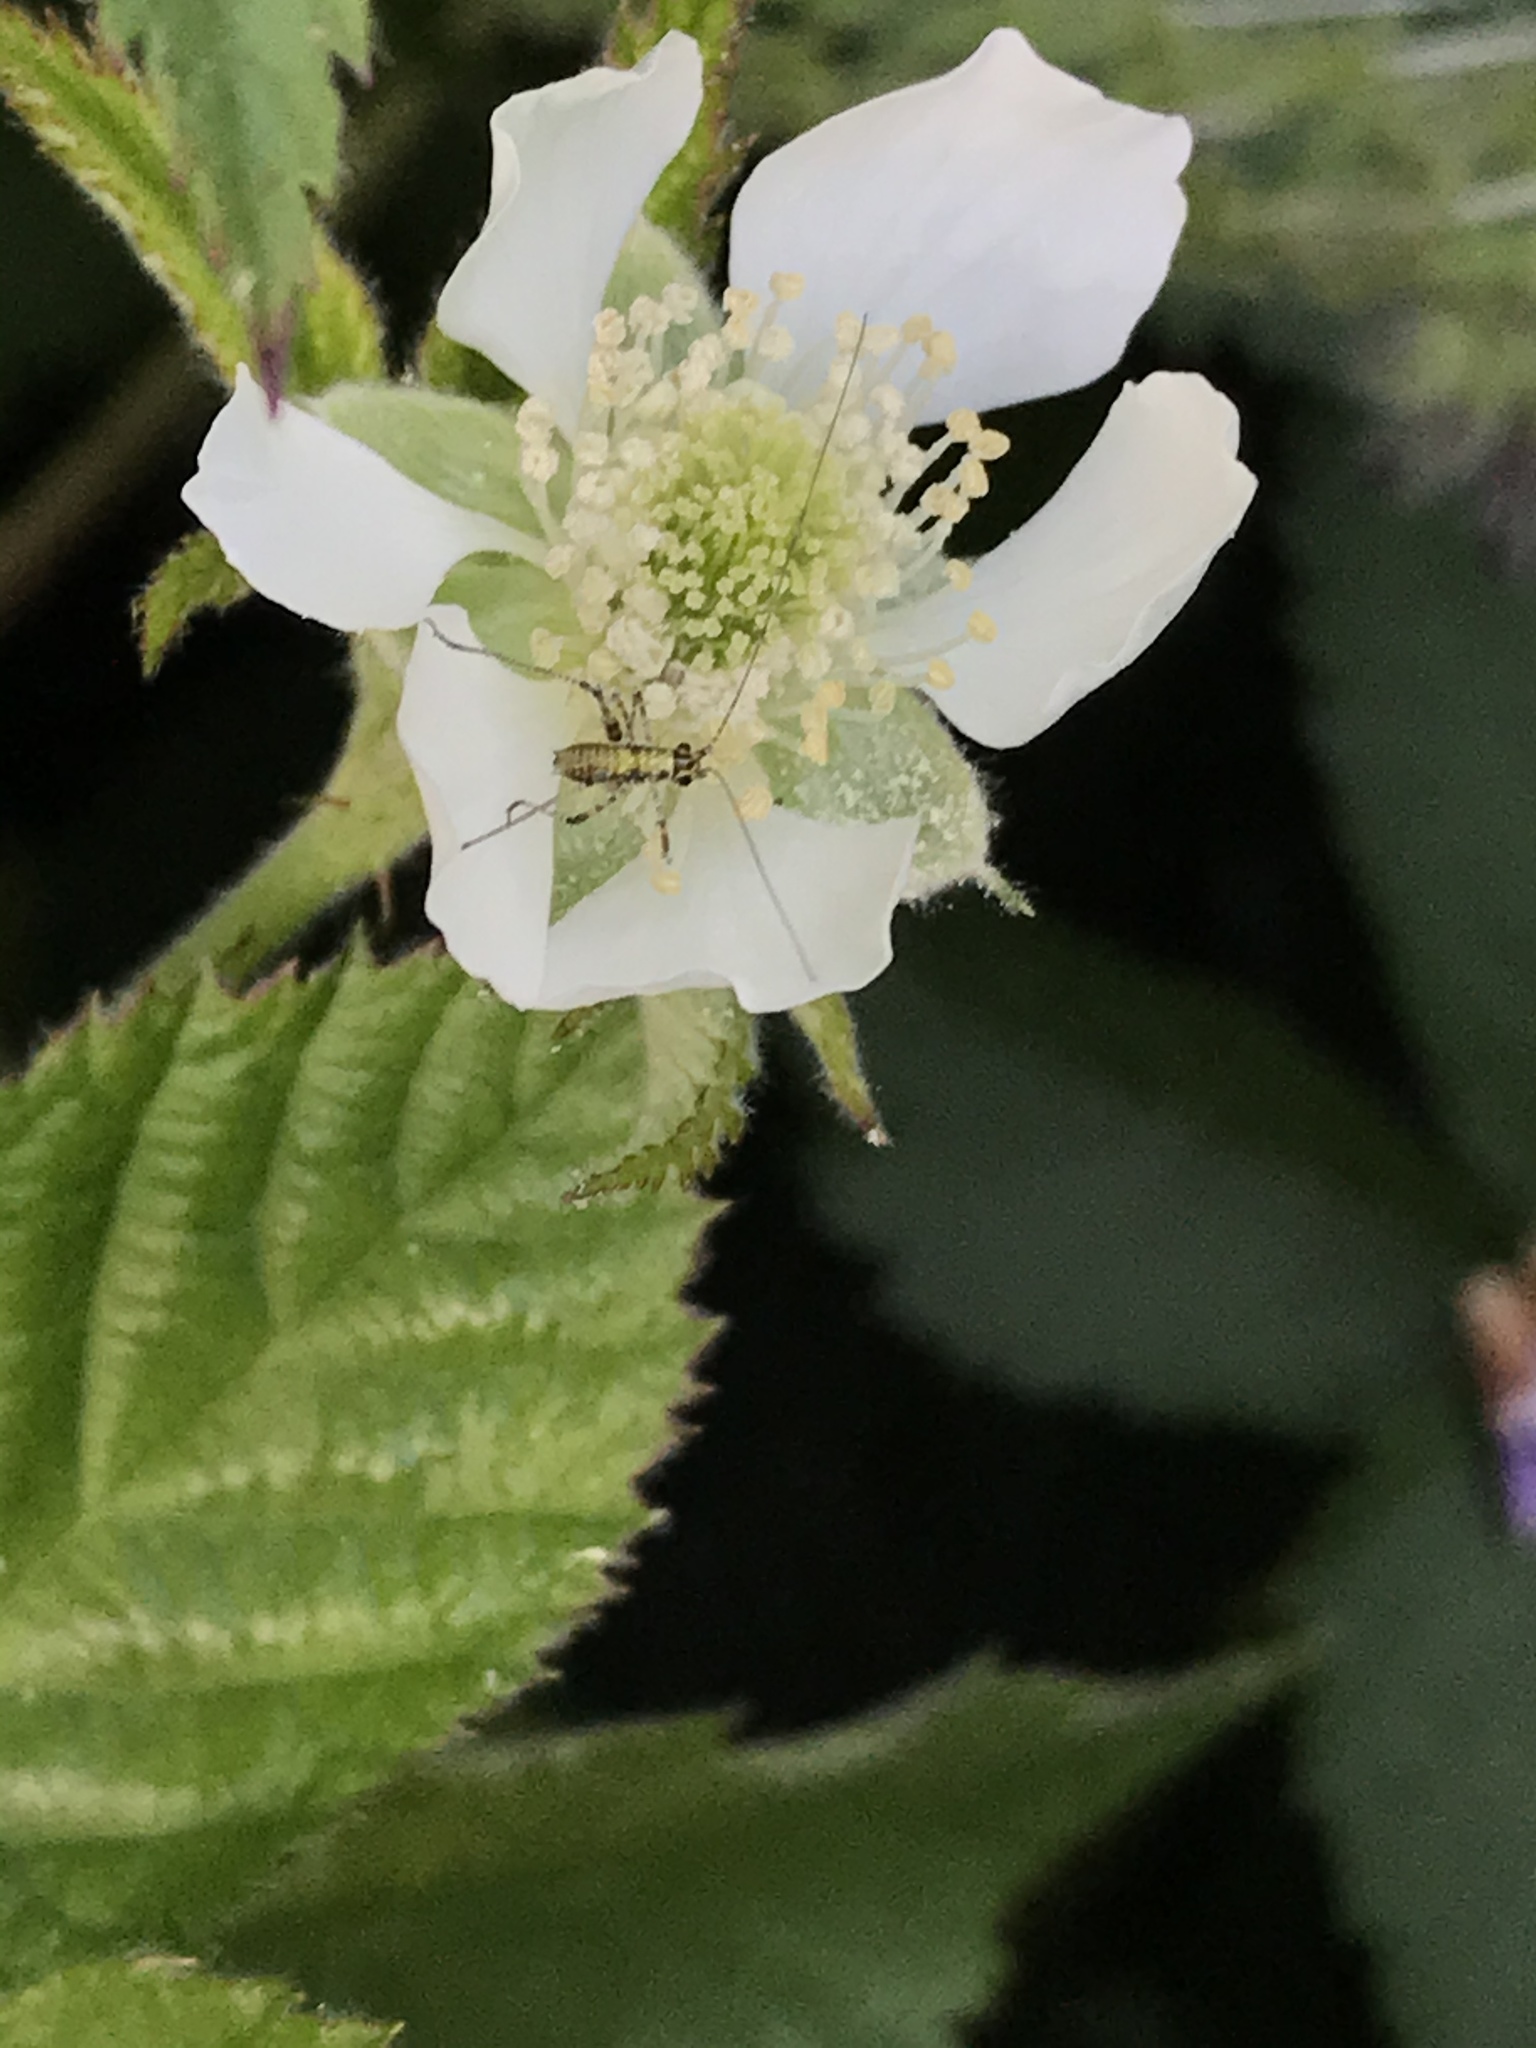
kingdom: Animalia
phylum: Arthropoda
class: Insecta
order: Orthoptera
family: Tettigoniidae
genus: Phaneroptera
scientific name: Phaneroptera nana
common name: Southern sickle bush-cricket
